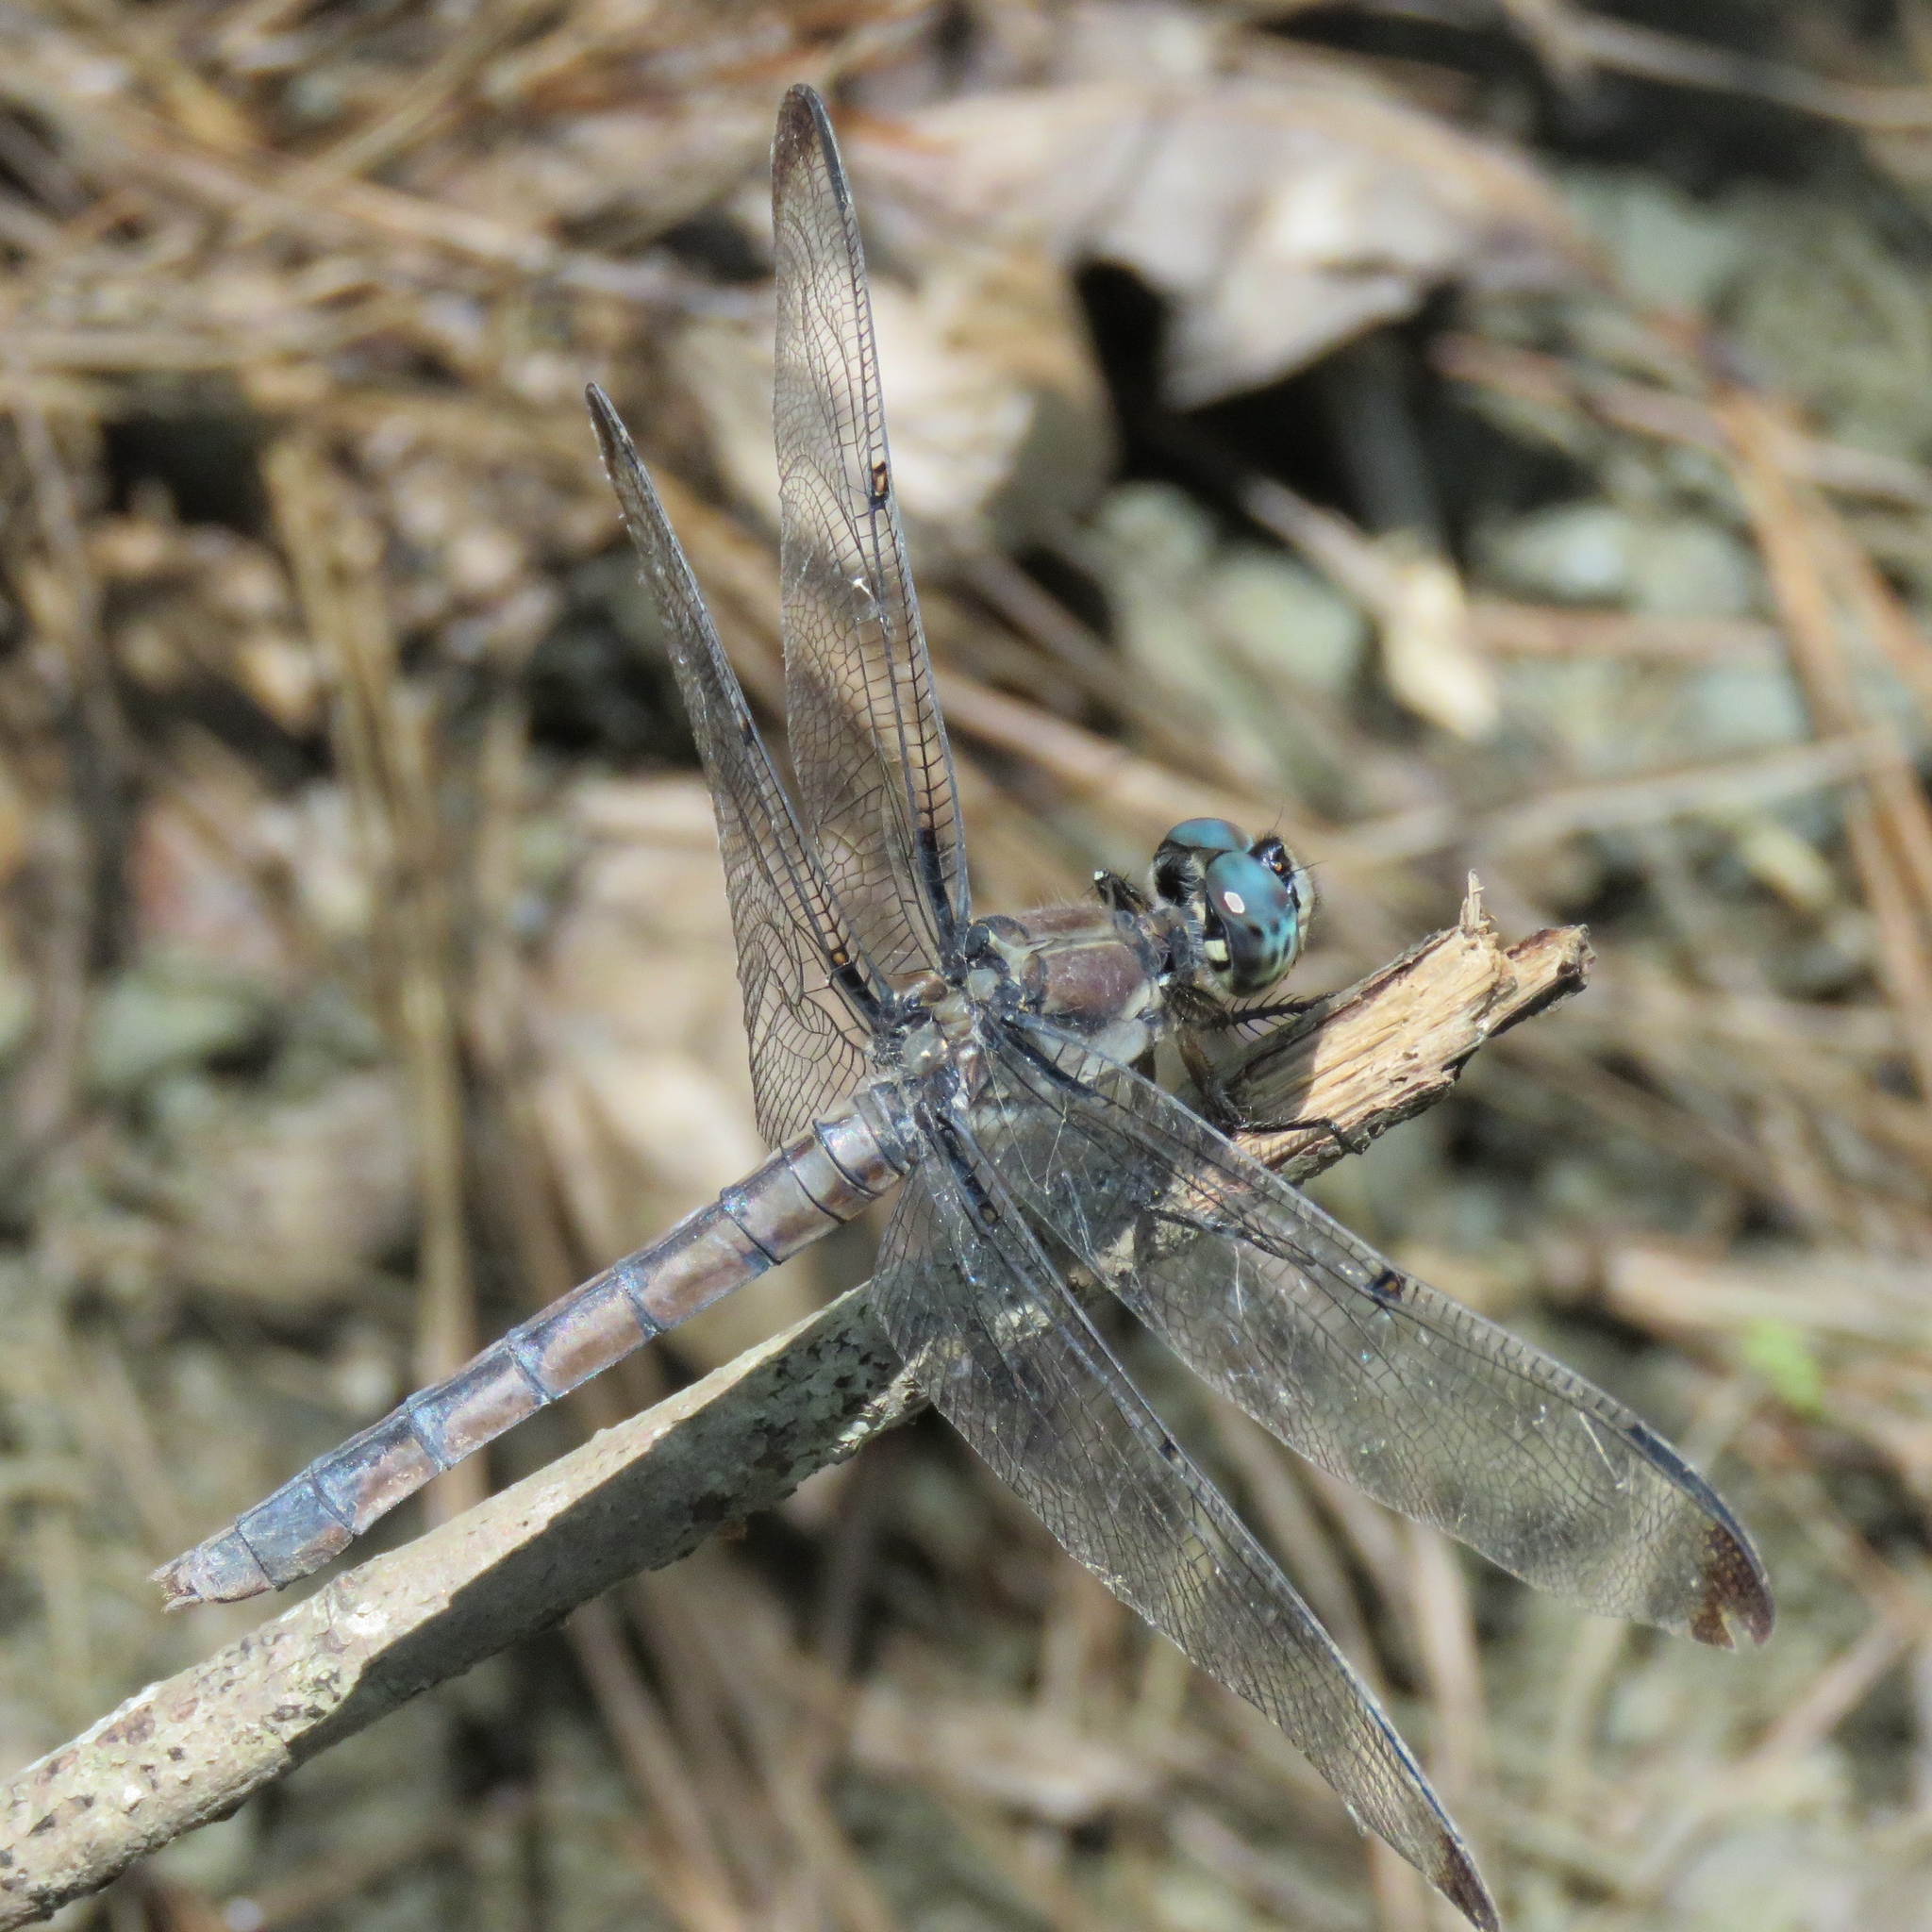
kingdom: Animalia
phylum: Arthropoda
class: Insecta
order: Odonata
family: Libellulidae
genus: Libellula
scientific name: Libellula vibrans
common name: Great blue skimmer
